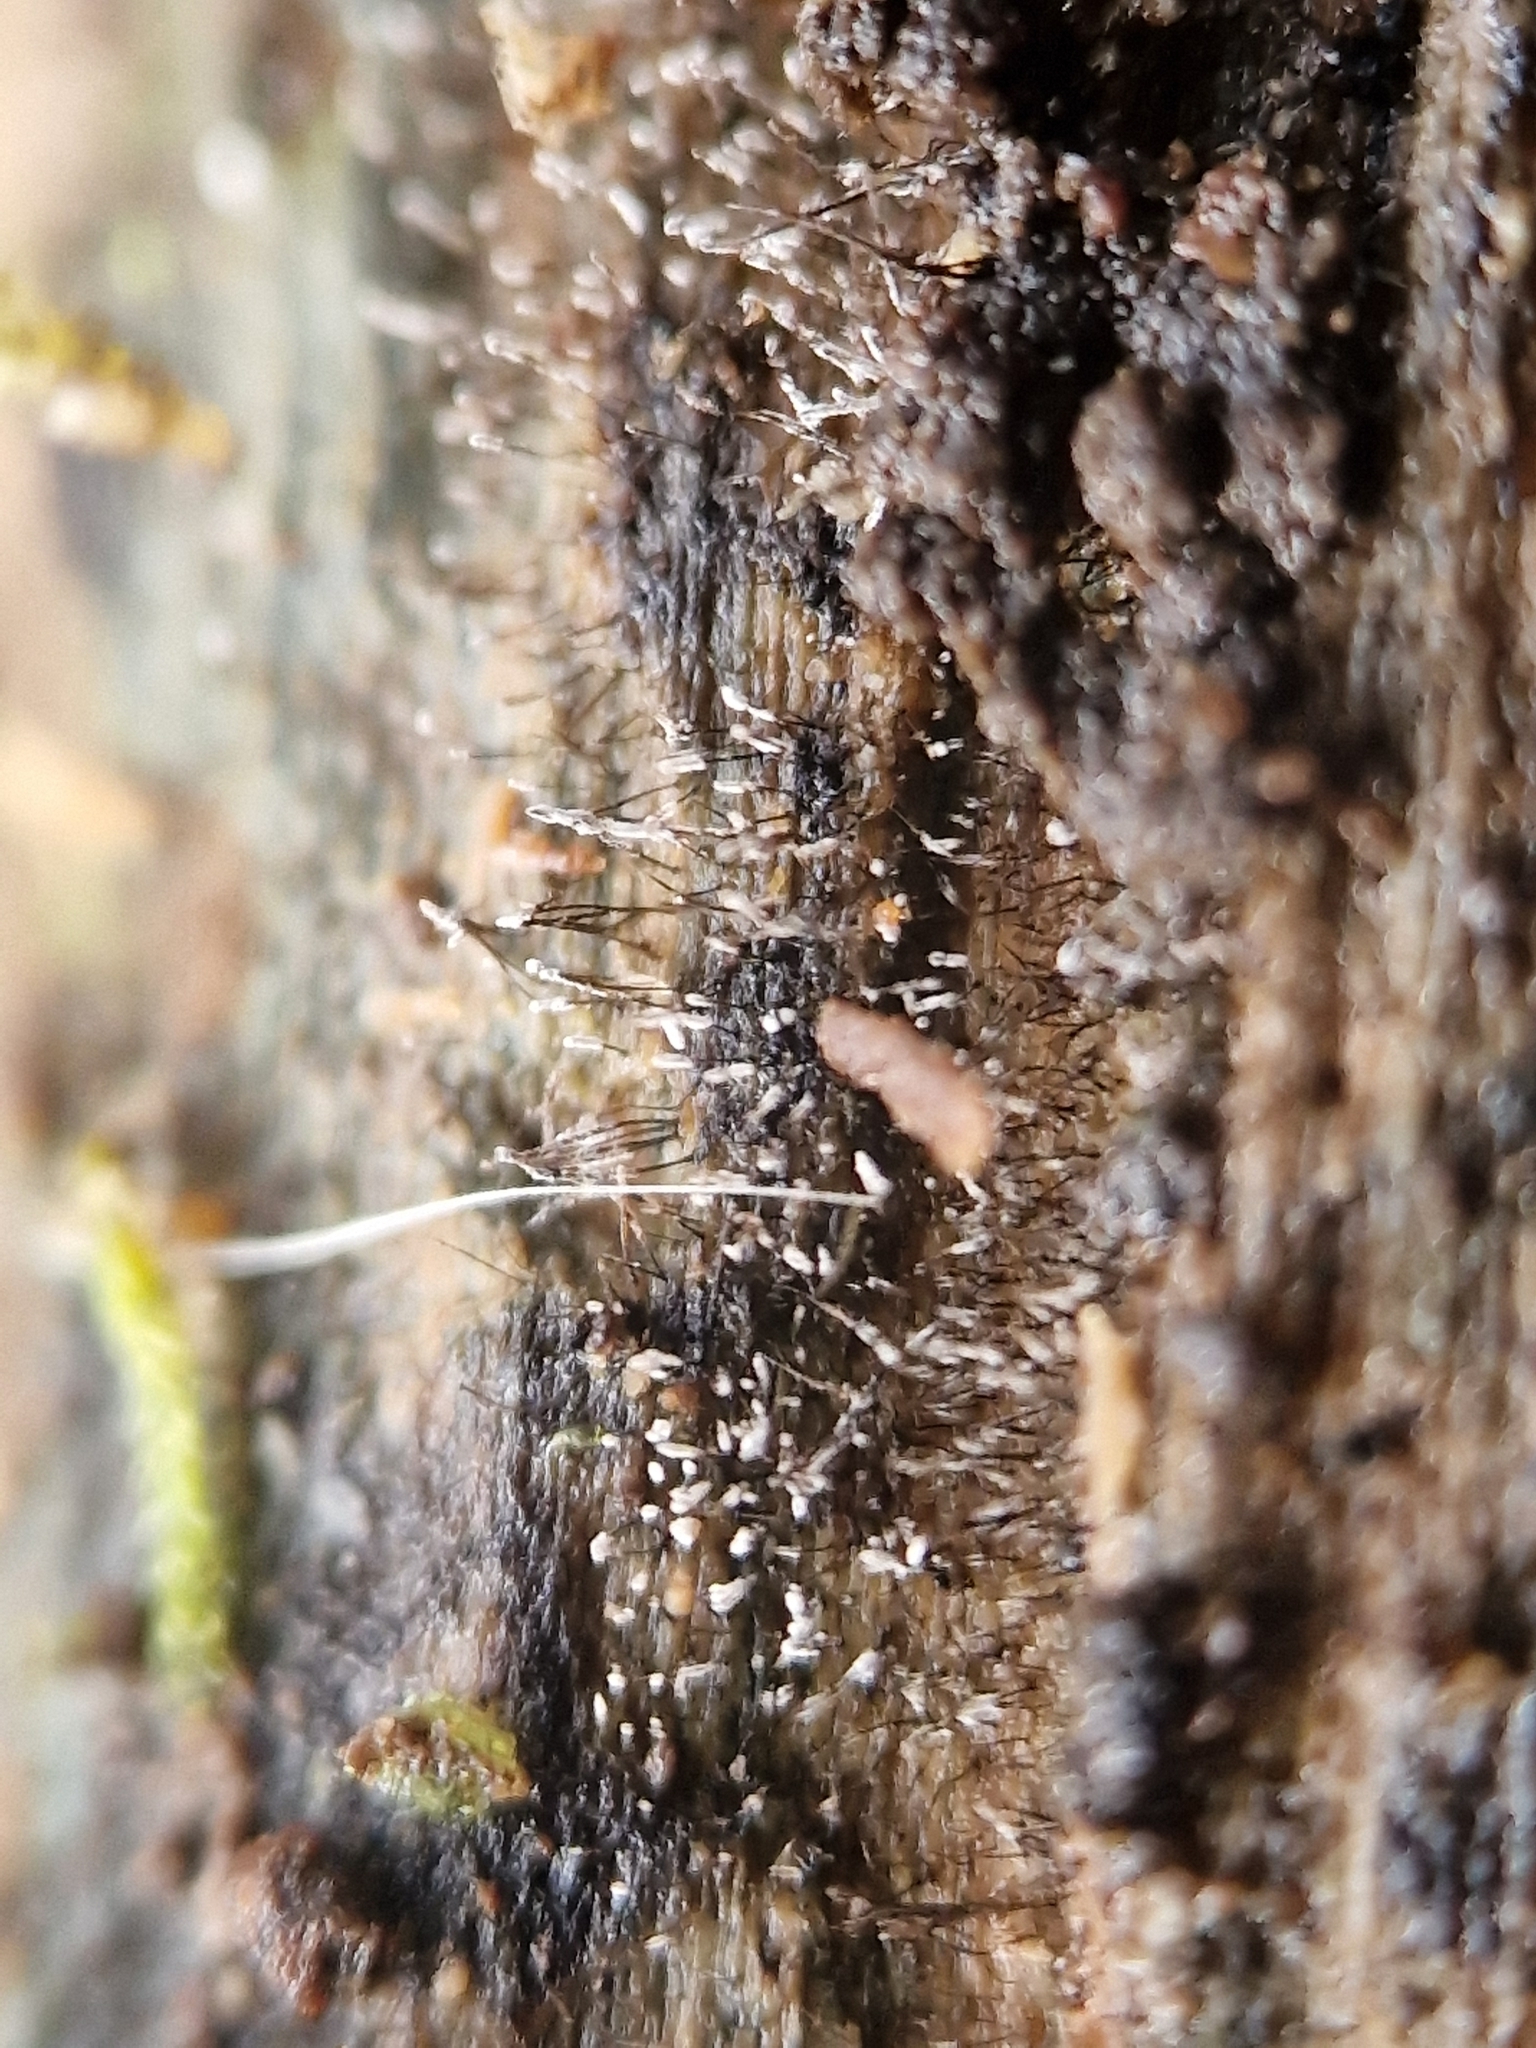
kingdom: Fungi
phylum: Ascomycota
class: Sordariomycetes
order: Xylariales
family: Diatrypaceae
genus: Phaeoisaria
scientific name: Phaeoisaria clavulata
